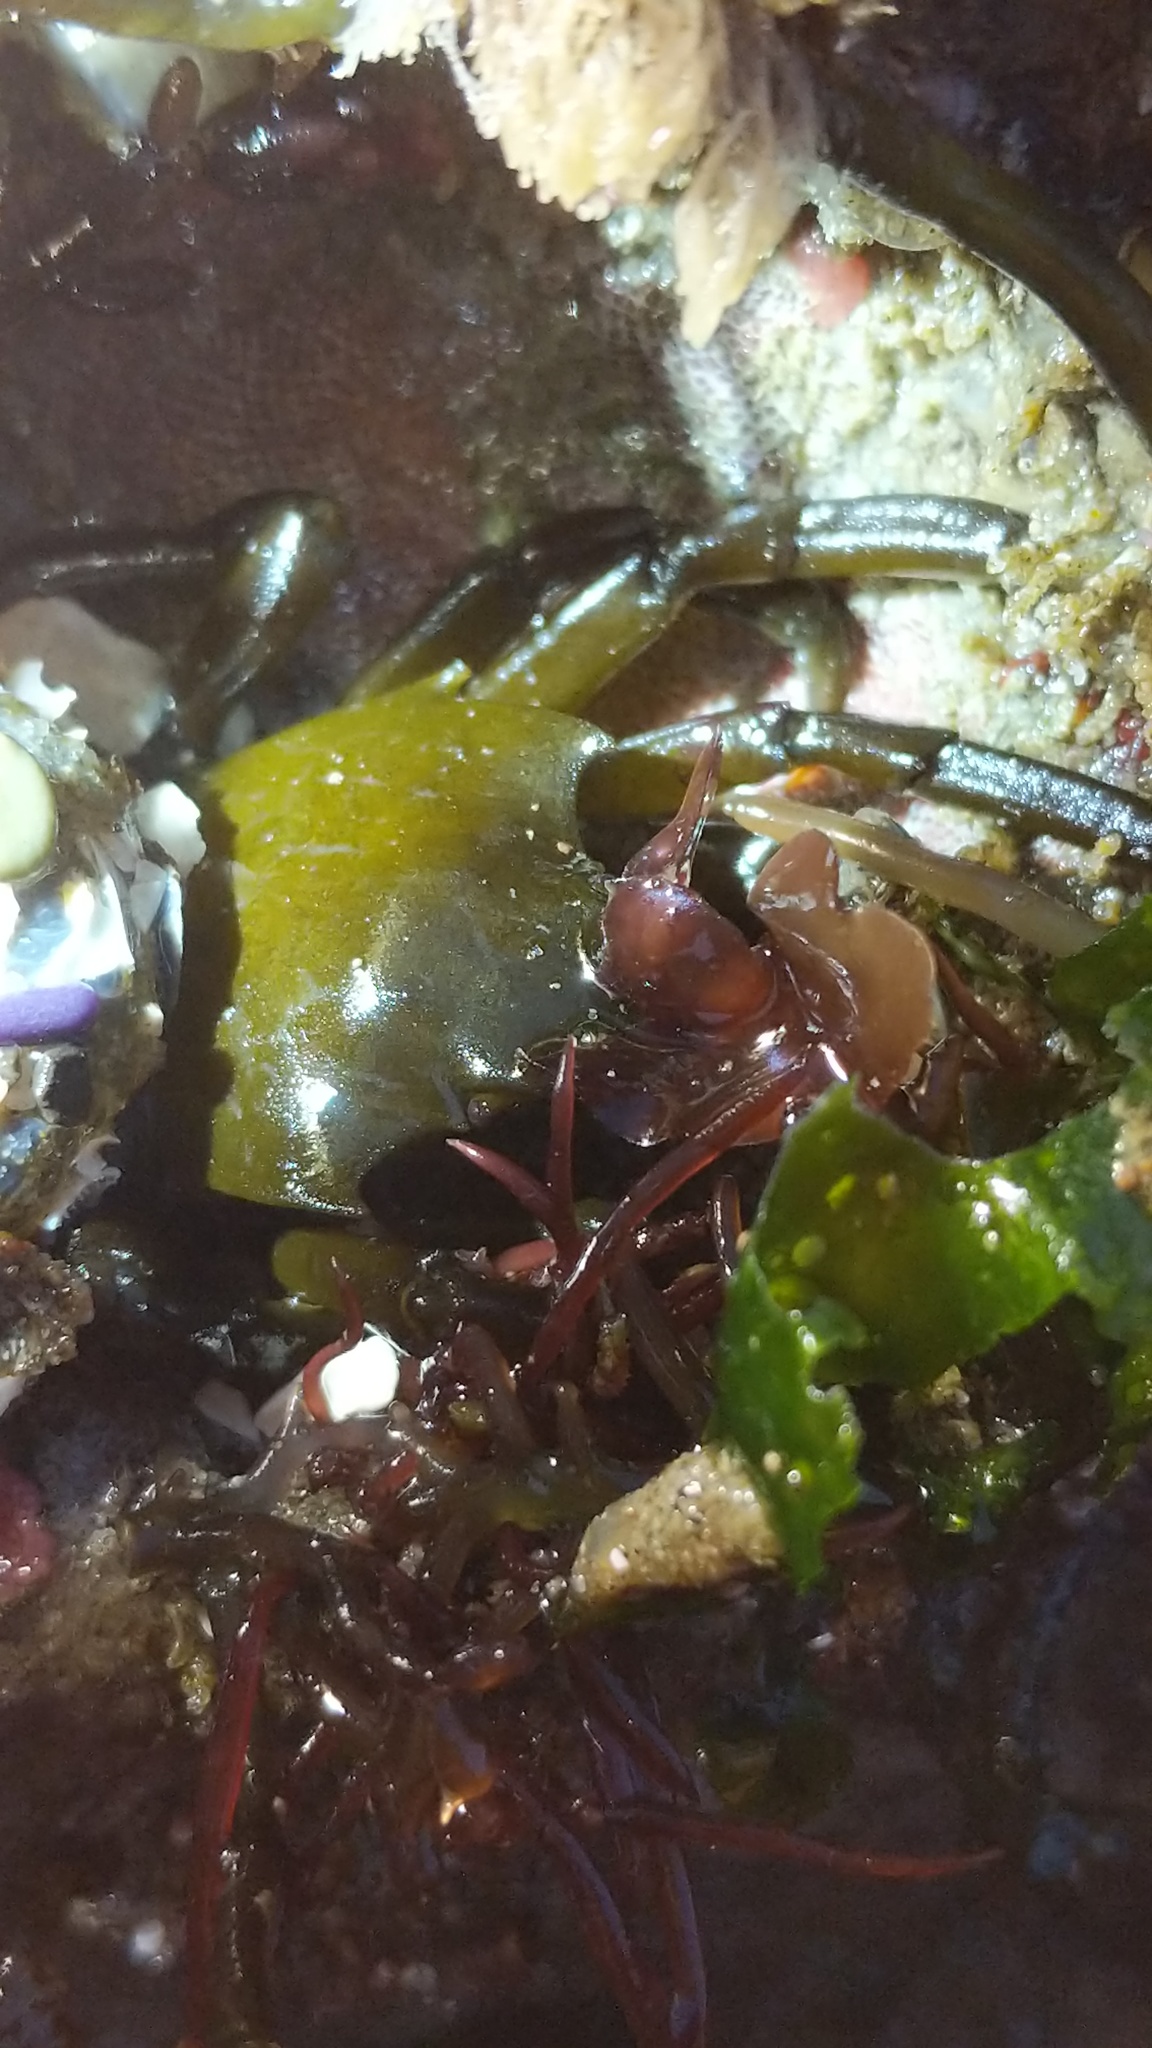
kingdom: Animalia
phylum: Arthropoda
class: Malacostraca
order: Decapoda
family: Epialtidae
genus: Pugettia
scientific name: Pugettia producta
